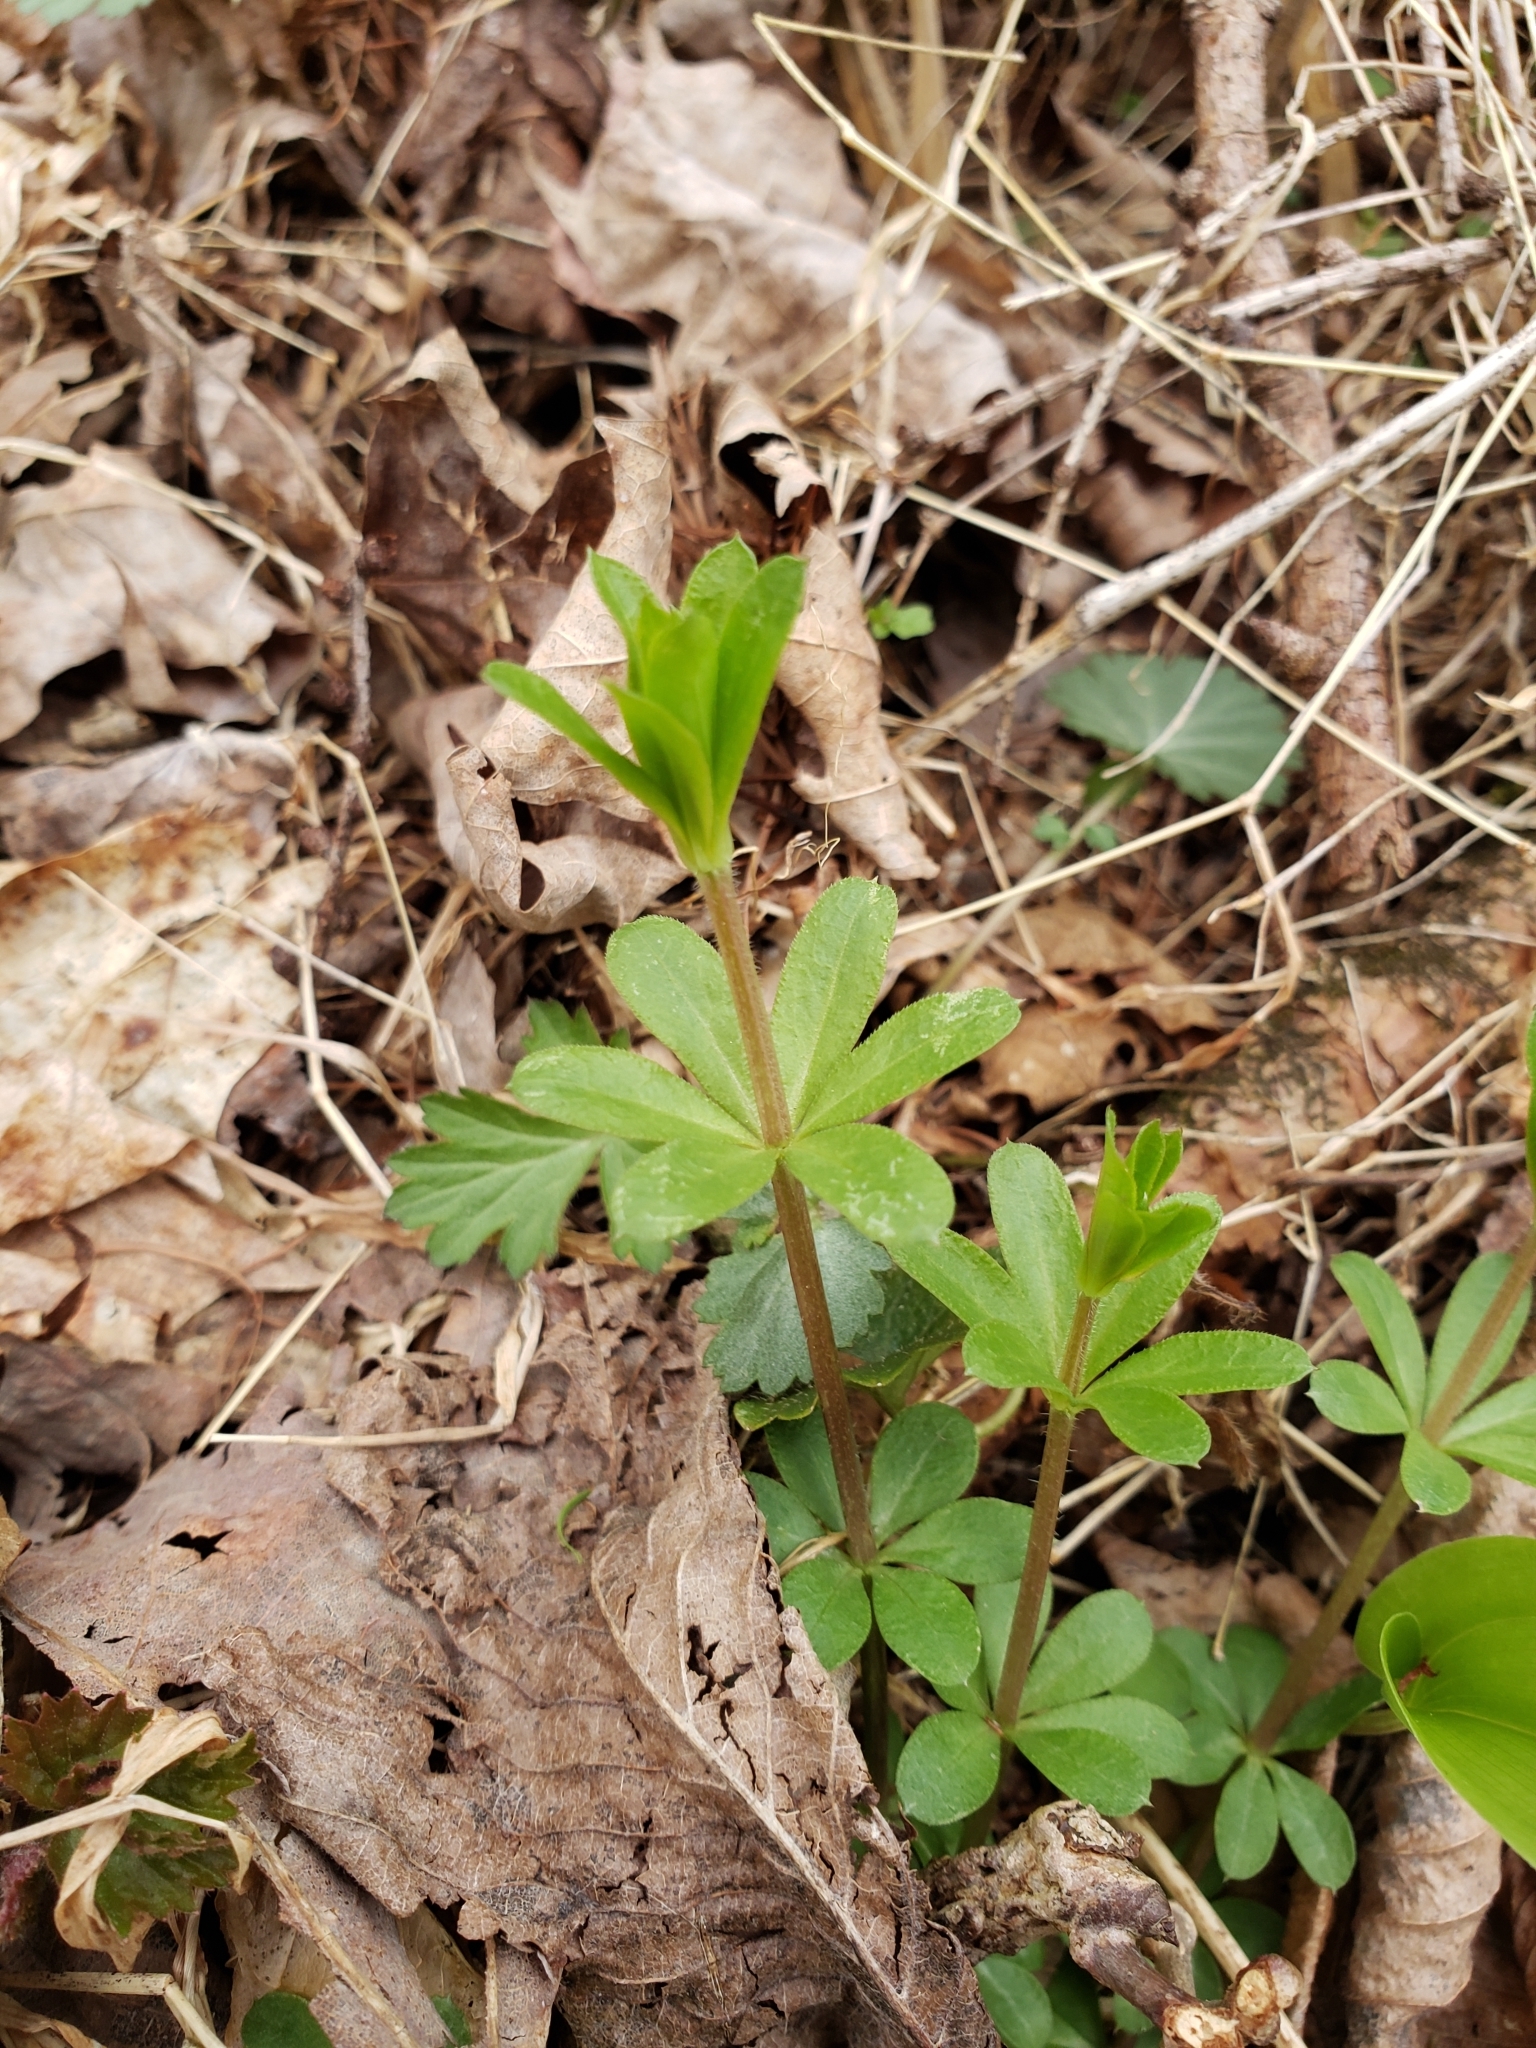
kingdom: Plantae
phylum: Tracheophyta
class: Magnoliopsida
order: Gentianales
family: Rubiaceae
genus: Galium
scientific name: Galium triflorum
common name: Fragrant bedstraw
